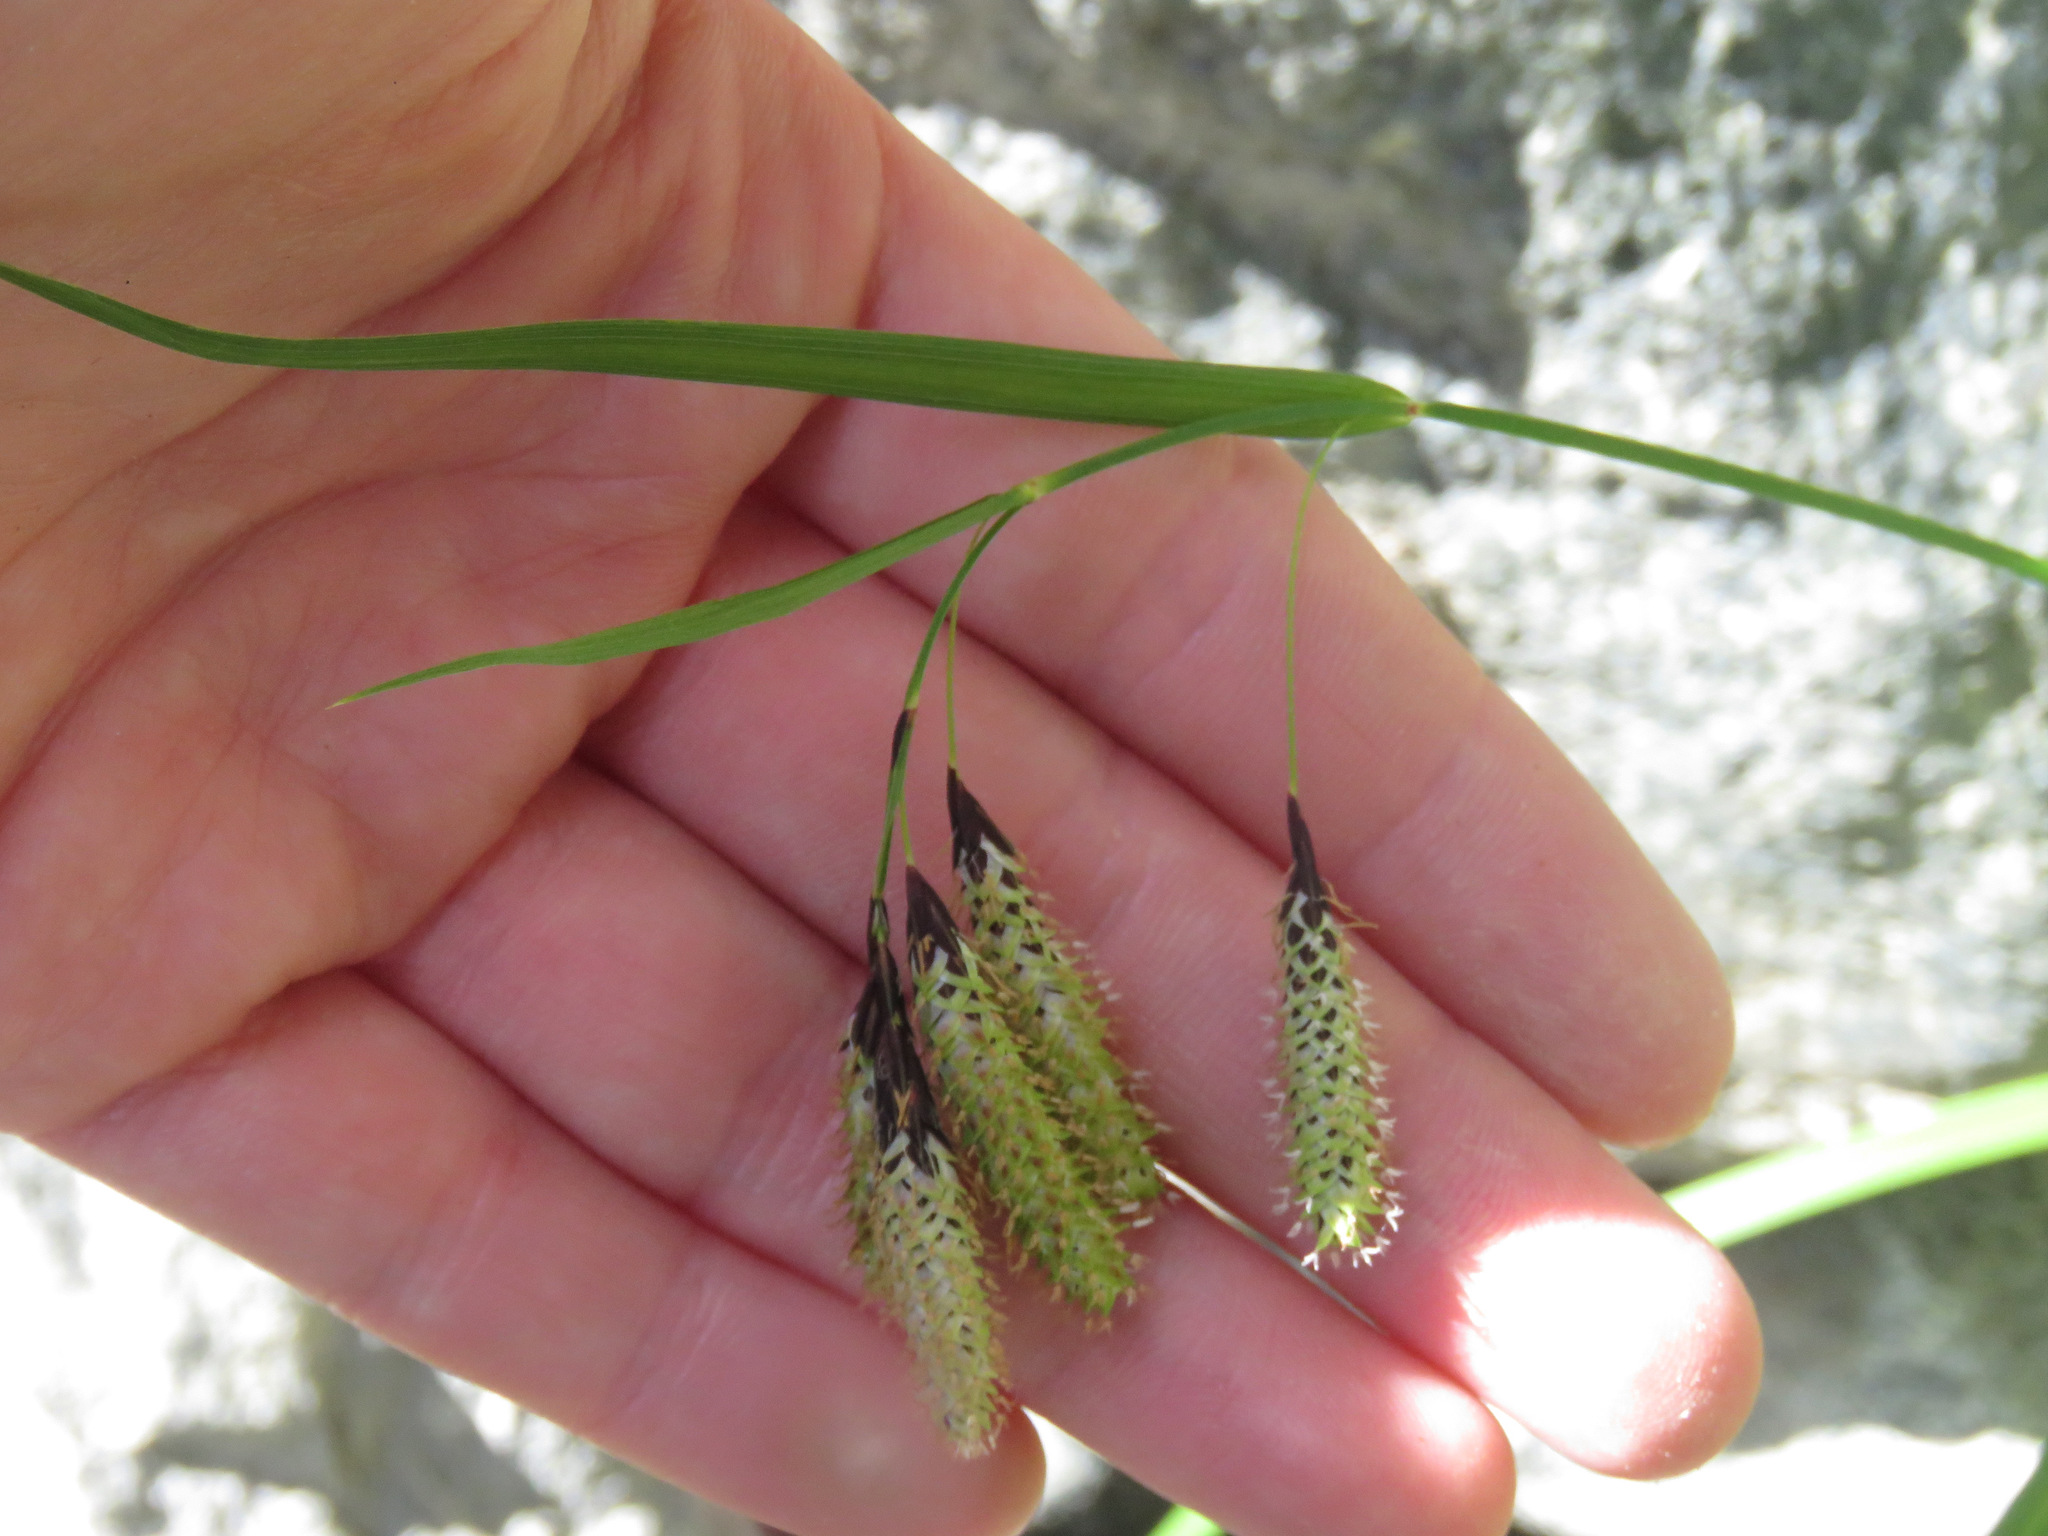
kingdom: Plantae
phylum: Tracheophyta
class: Liliopsida
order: Poales
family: Cyperaceae
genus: Carex
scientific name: Carex mertensii
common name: Mertens' sedge
